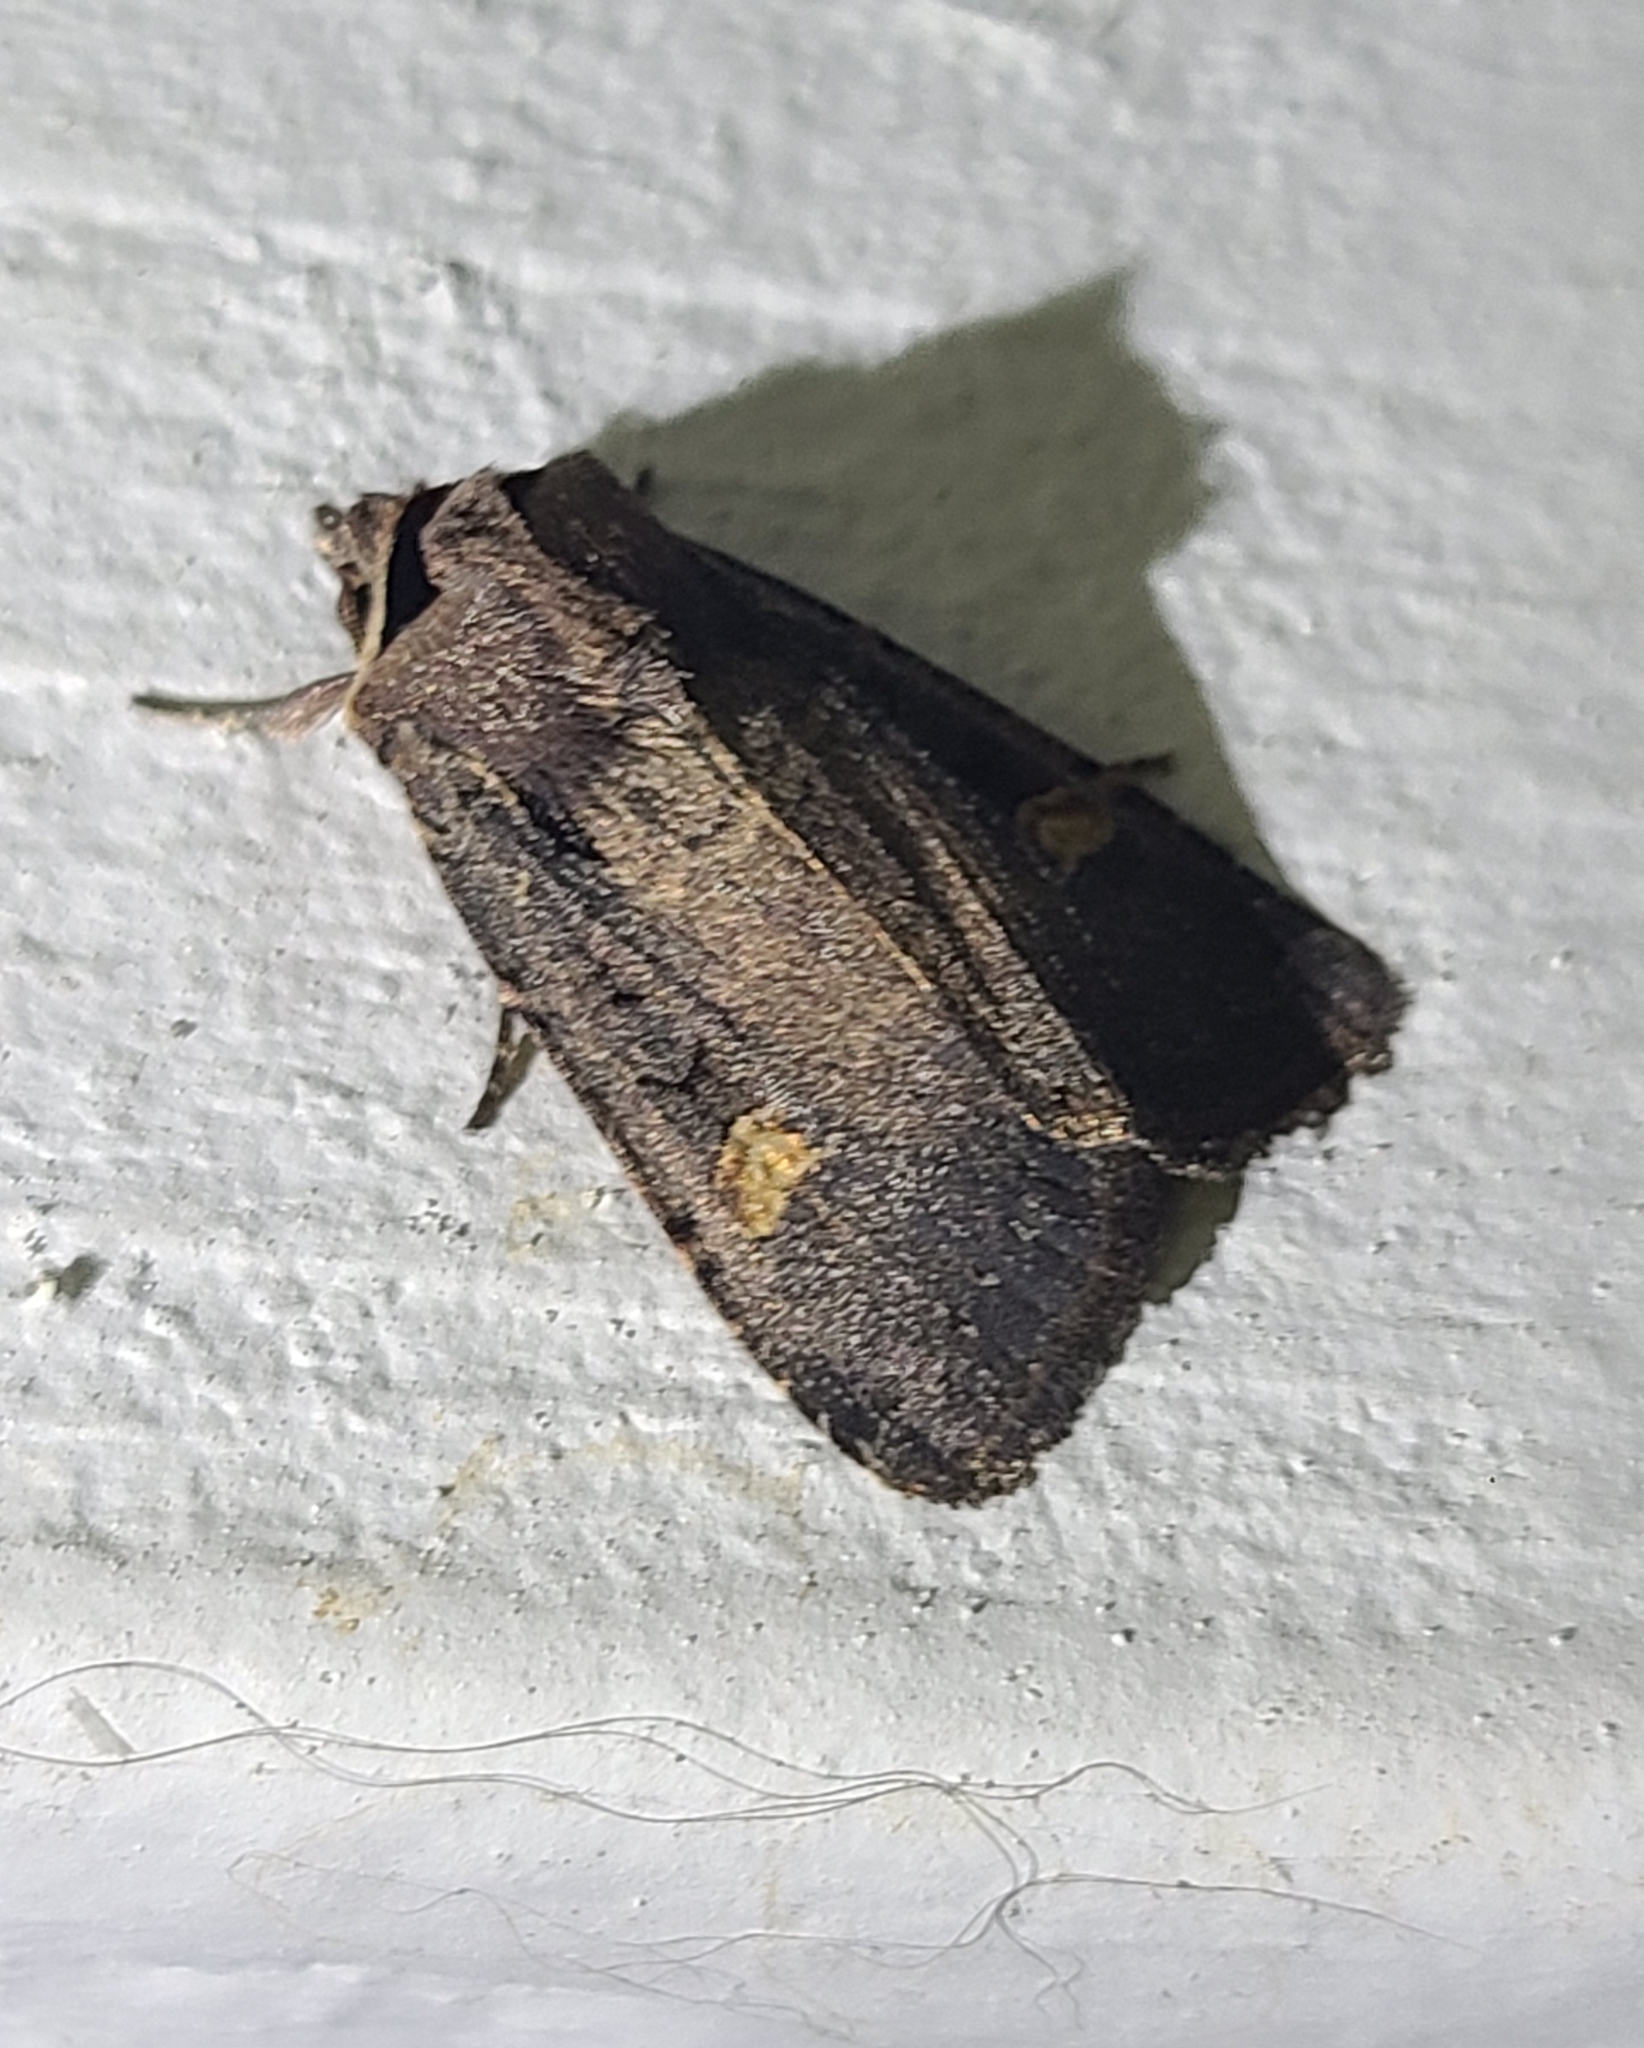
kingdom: Animalia
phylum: Arthropoda
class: Insecta
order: Lepidoptera
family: Noctuidae
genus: Adelphagrotis
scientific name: Adelphagrotis indeterminata
